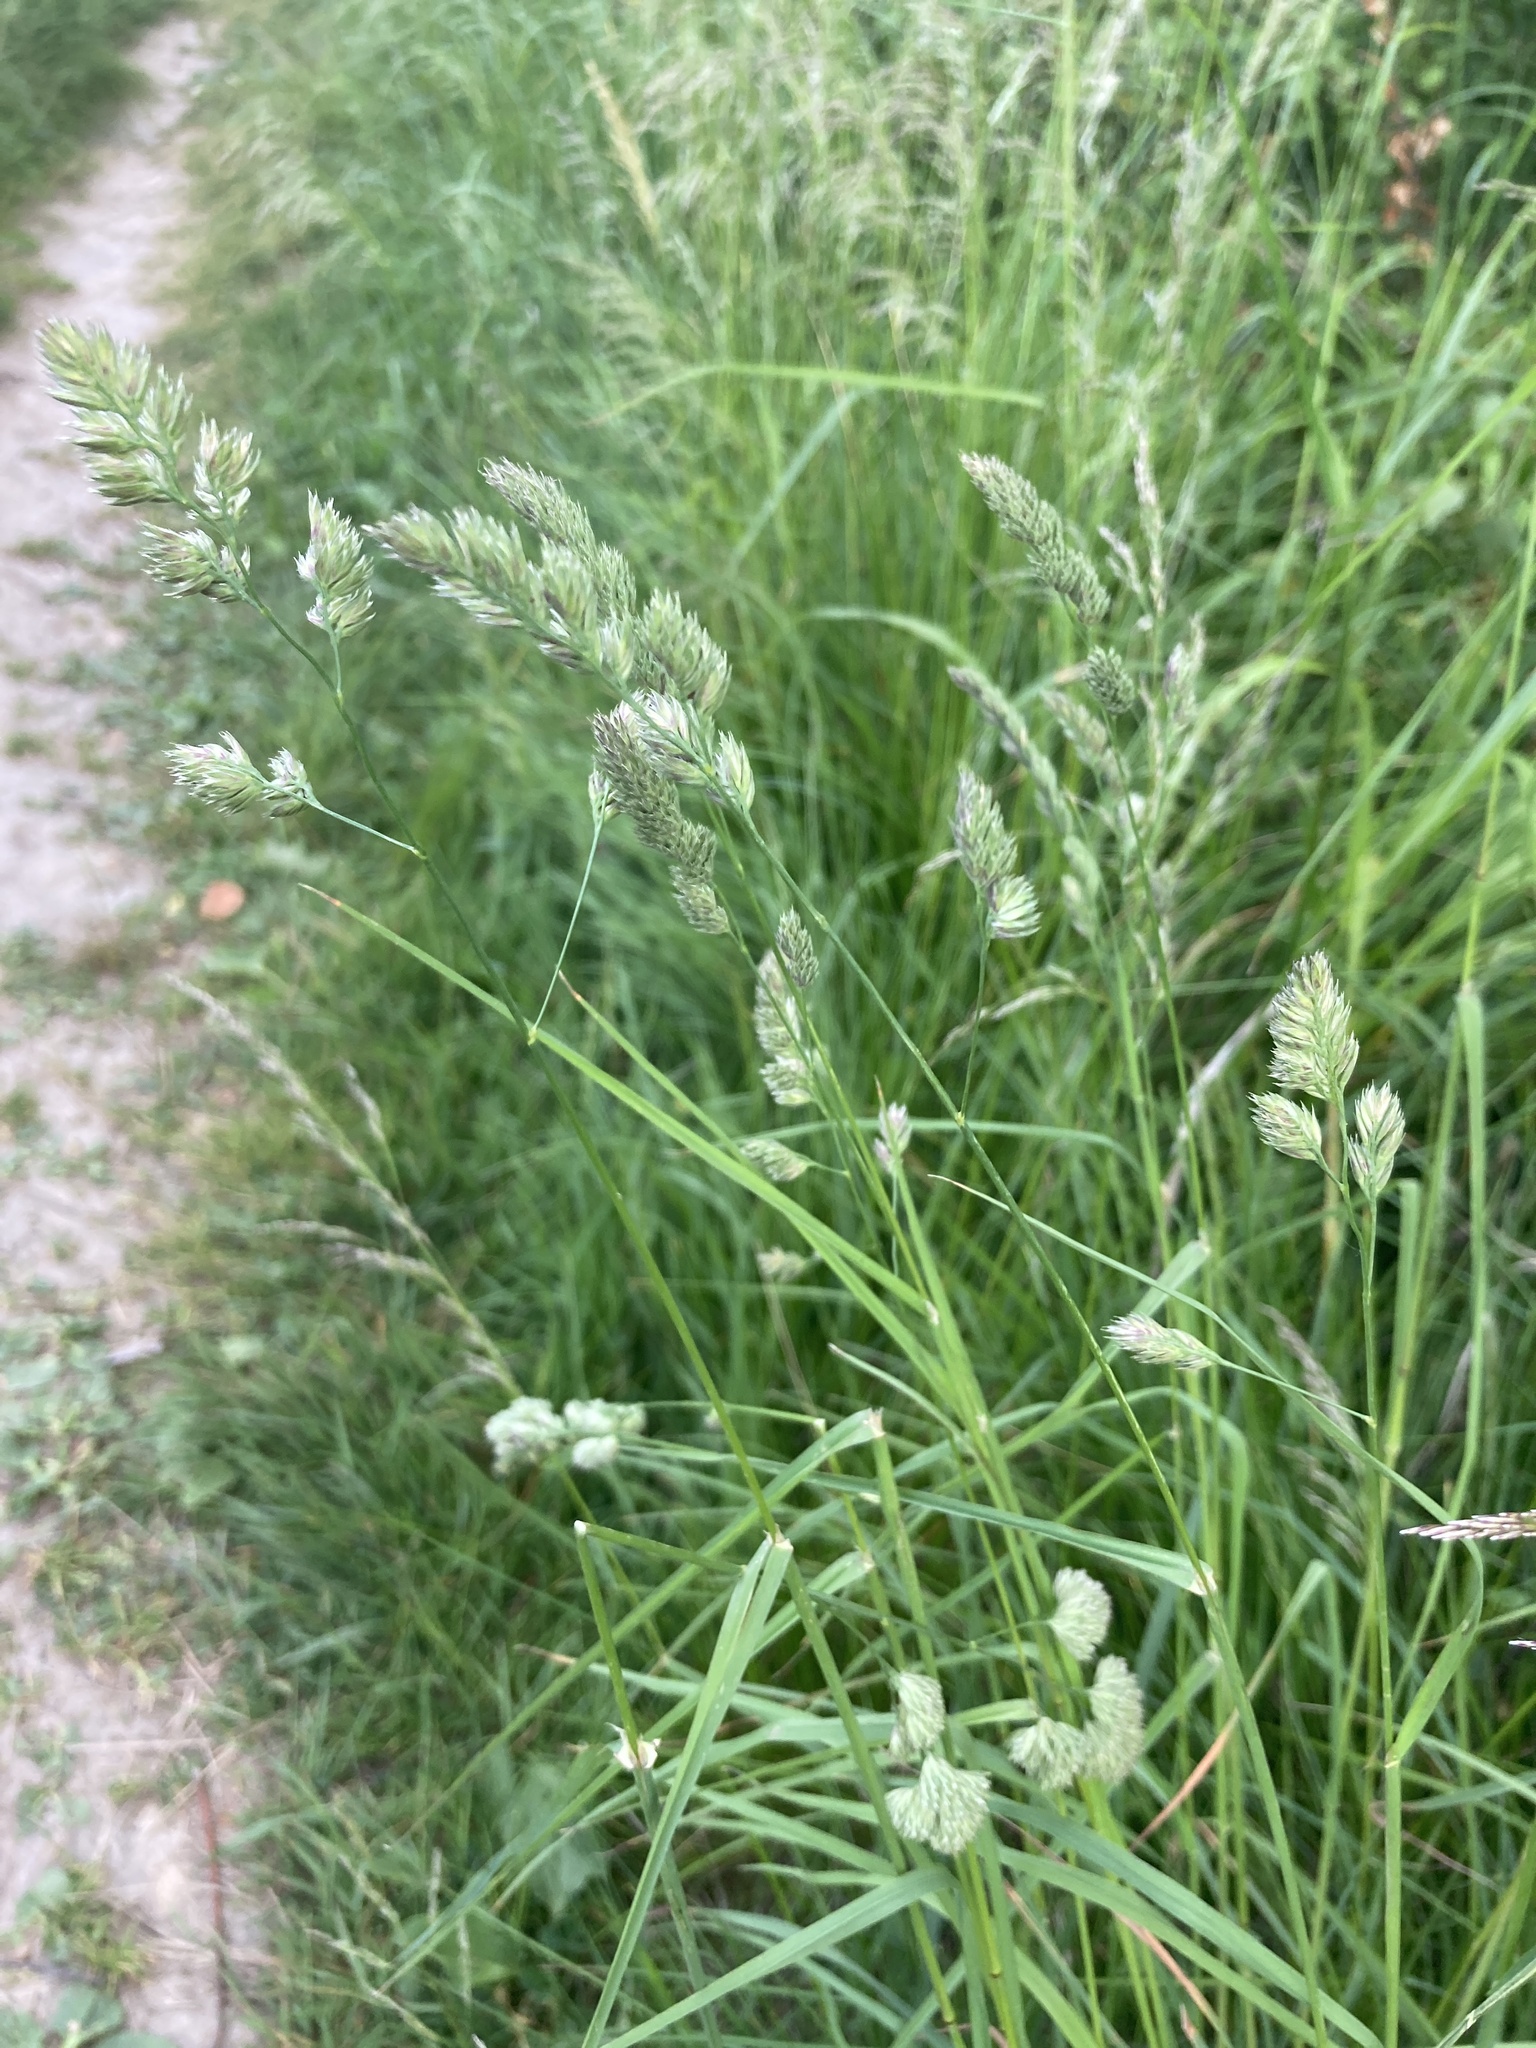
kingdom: Plantae
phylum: Tracheophyta
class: Liliopsida
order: Poales
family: Poaceae
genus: Dactylis
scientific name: Dactylis glomerata
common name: Orchardgrass
